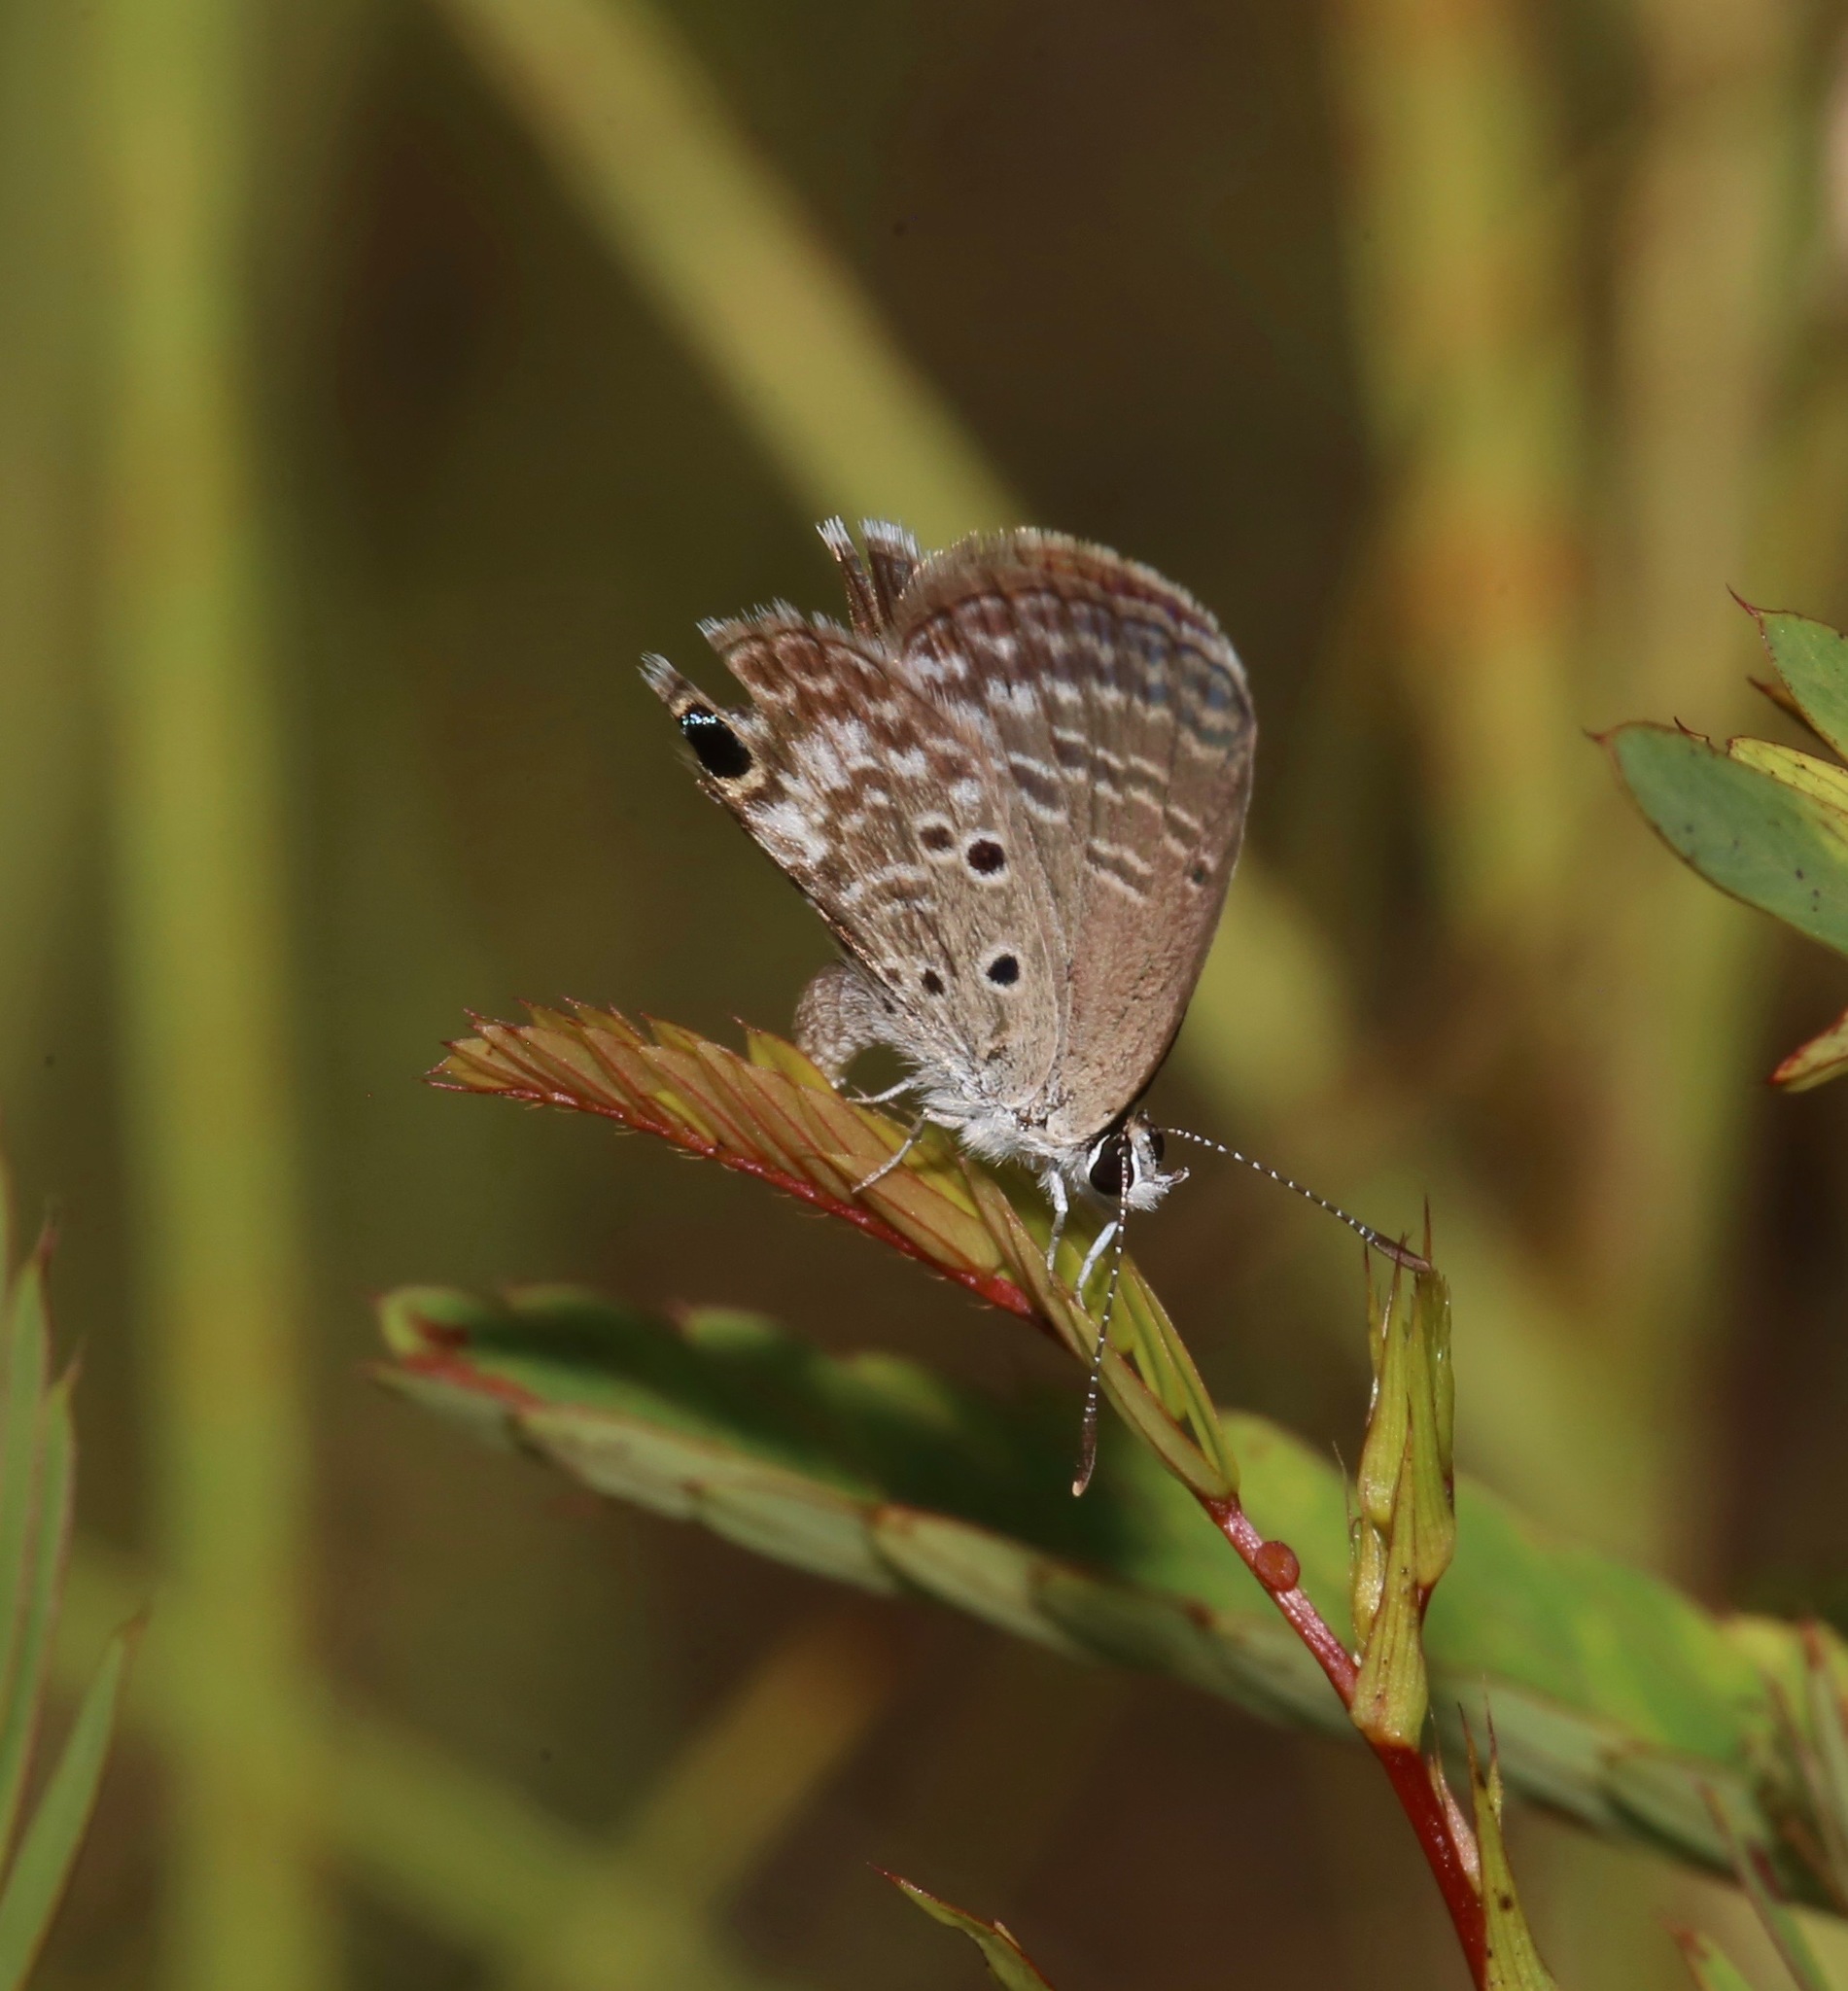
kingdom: Animalia
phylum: Arthropoda
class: Insecta
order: Lepidoptera
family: Lycaenidae
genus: Hemiargus
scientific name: Hemiargus ceraunus
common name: Ceraunus blue
